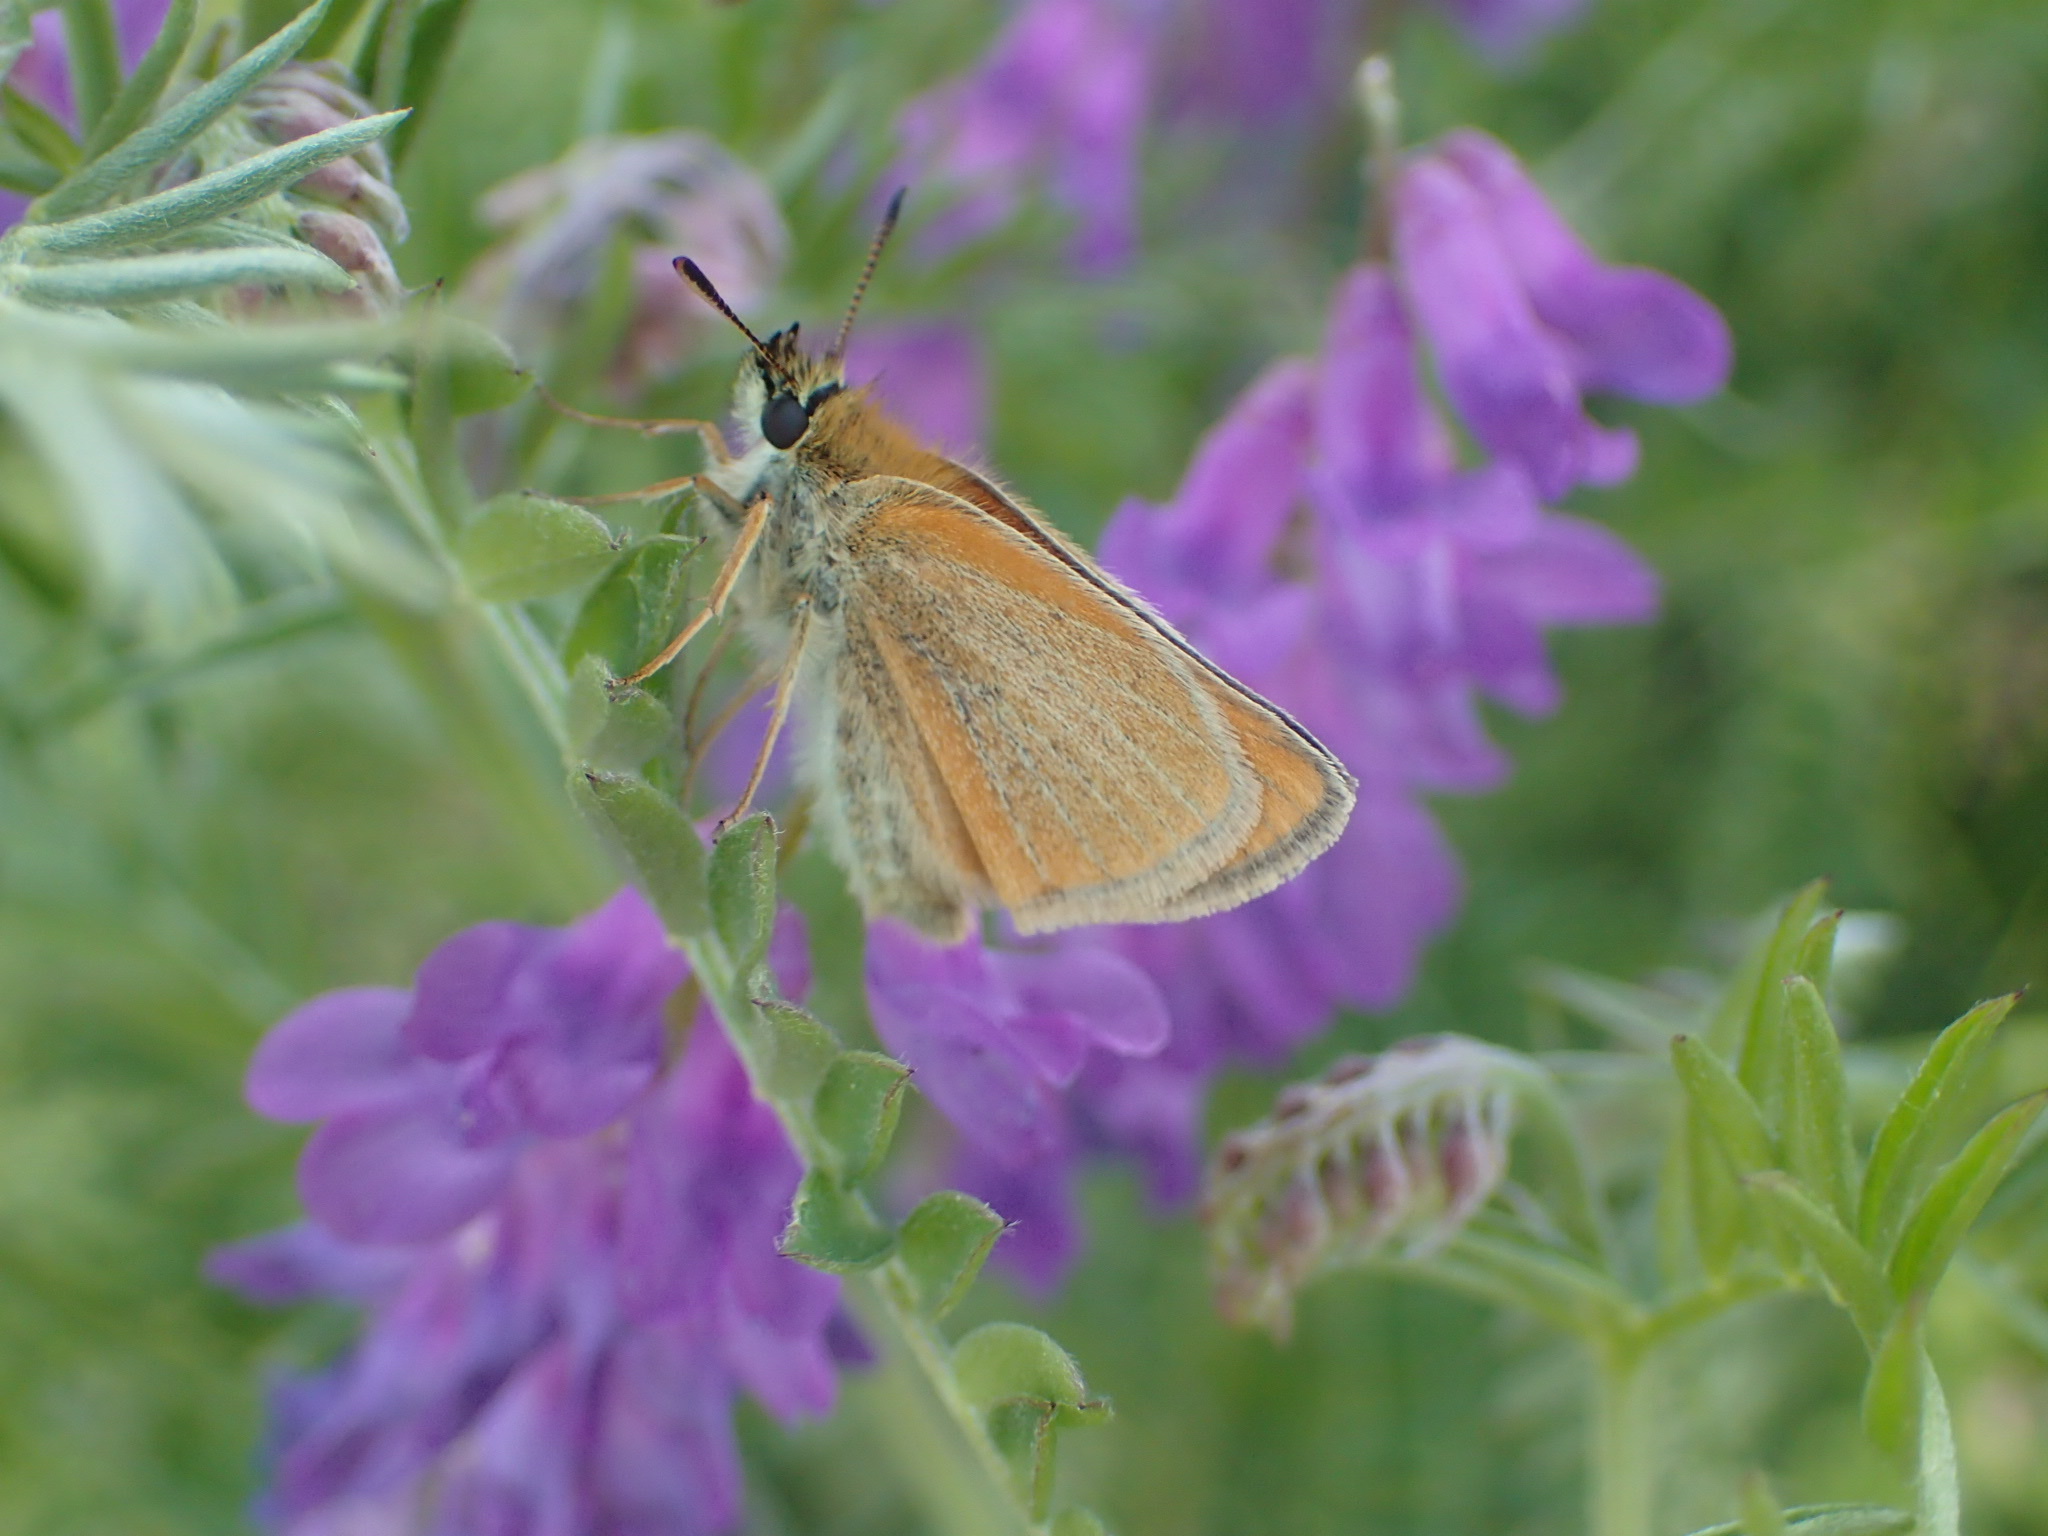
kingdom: Animalia
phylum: Arthropoda
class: Insecta
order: Lepidoptera
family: Hesperiidae
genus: Thymelicus
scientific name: Thymelicus lineola
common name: Essex skipper
